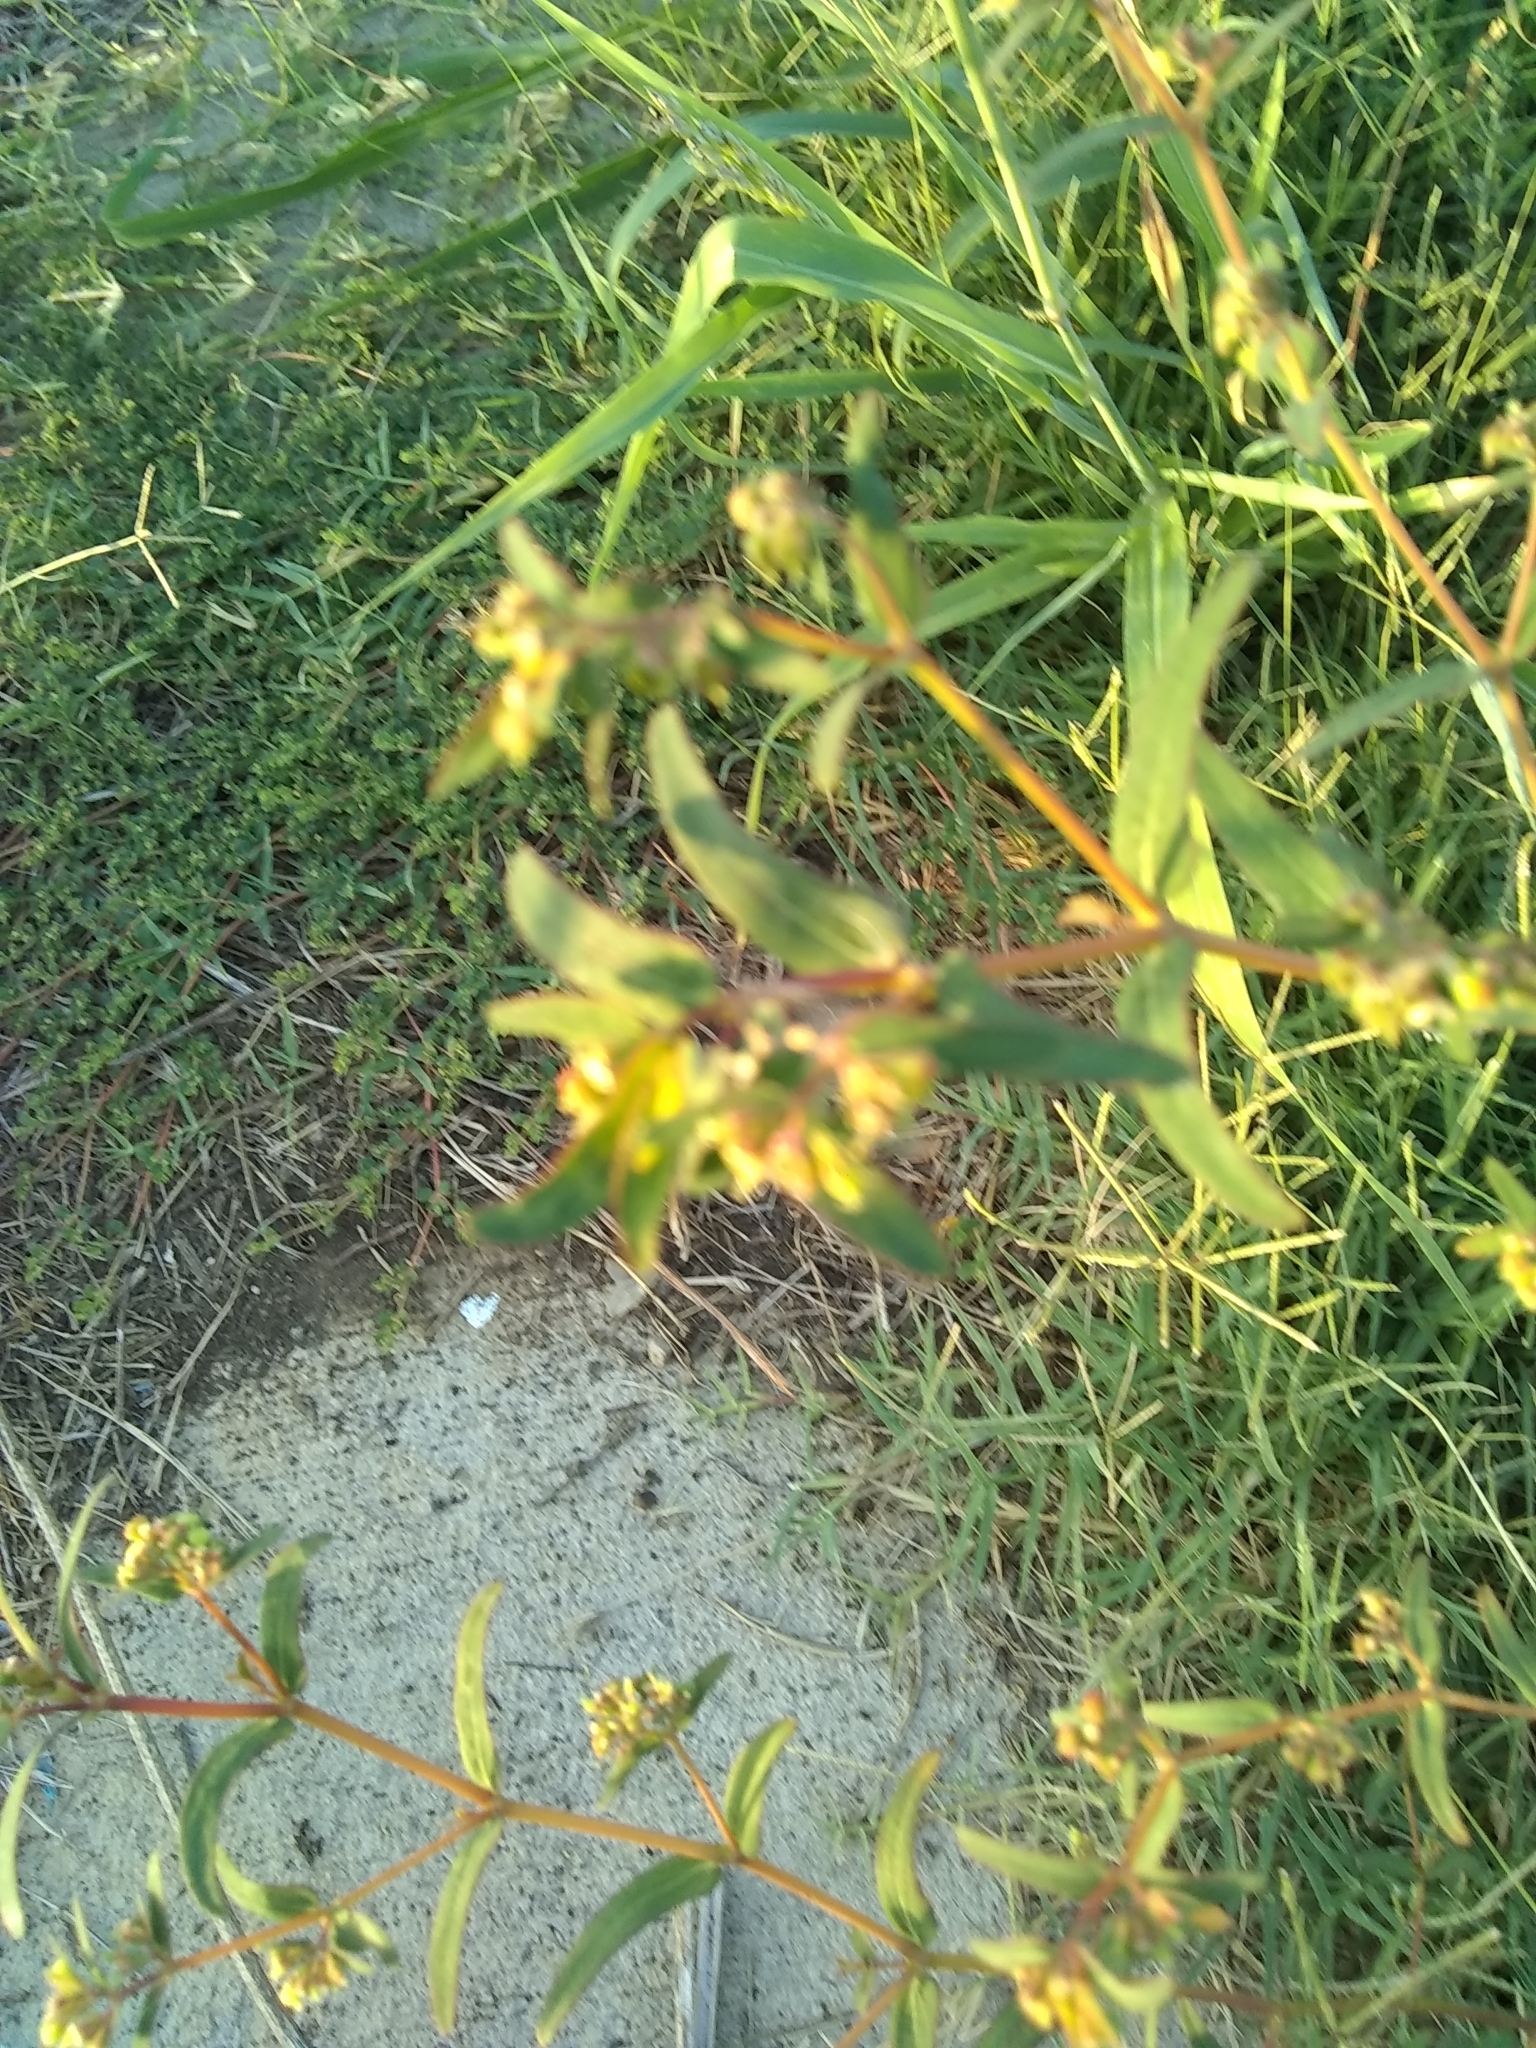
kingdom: Plantae
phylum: Tracheophyta
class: Magnoliopsida
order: Malpighiales
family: Euphorbiaceae
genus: Euphorbia
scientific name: Euphorbia hyssopifolia
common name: Hyssopleaf sandmat
